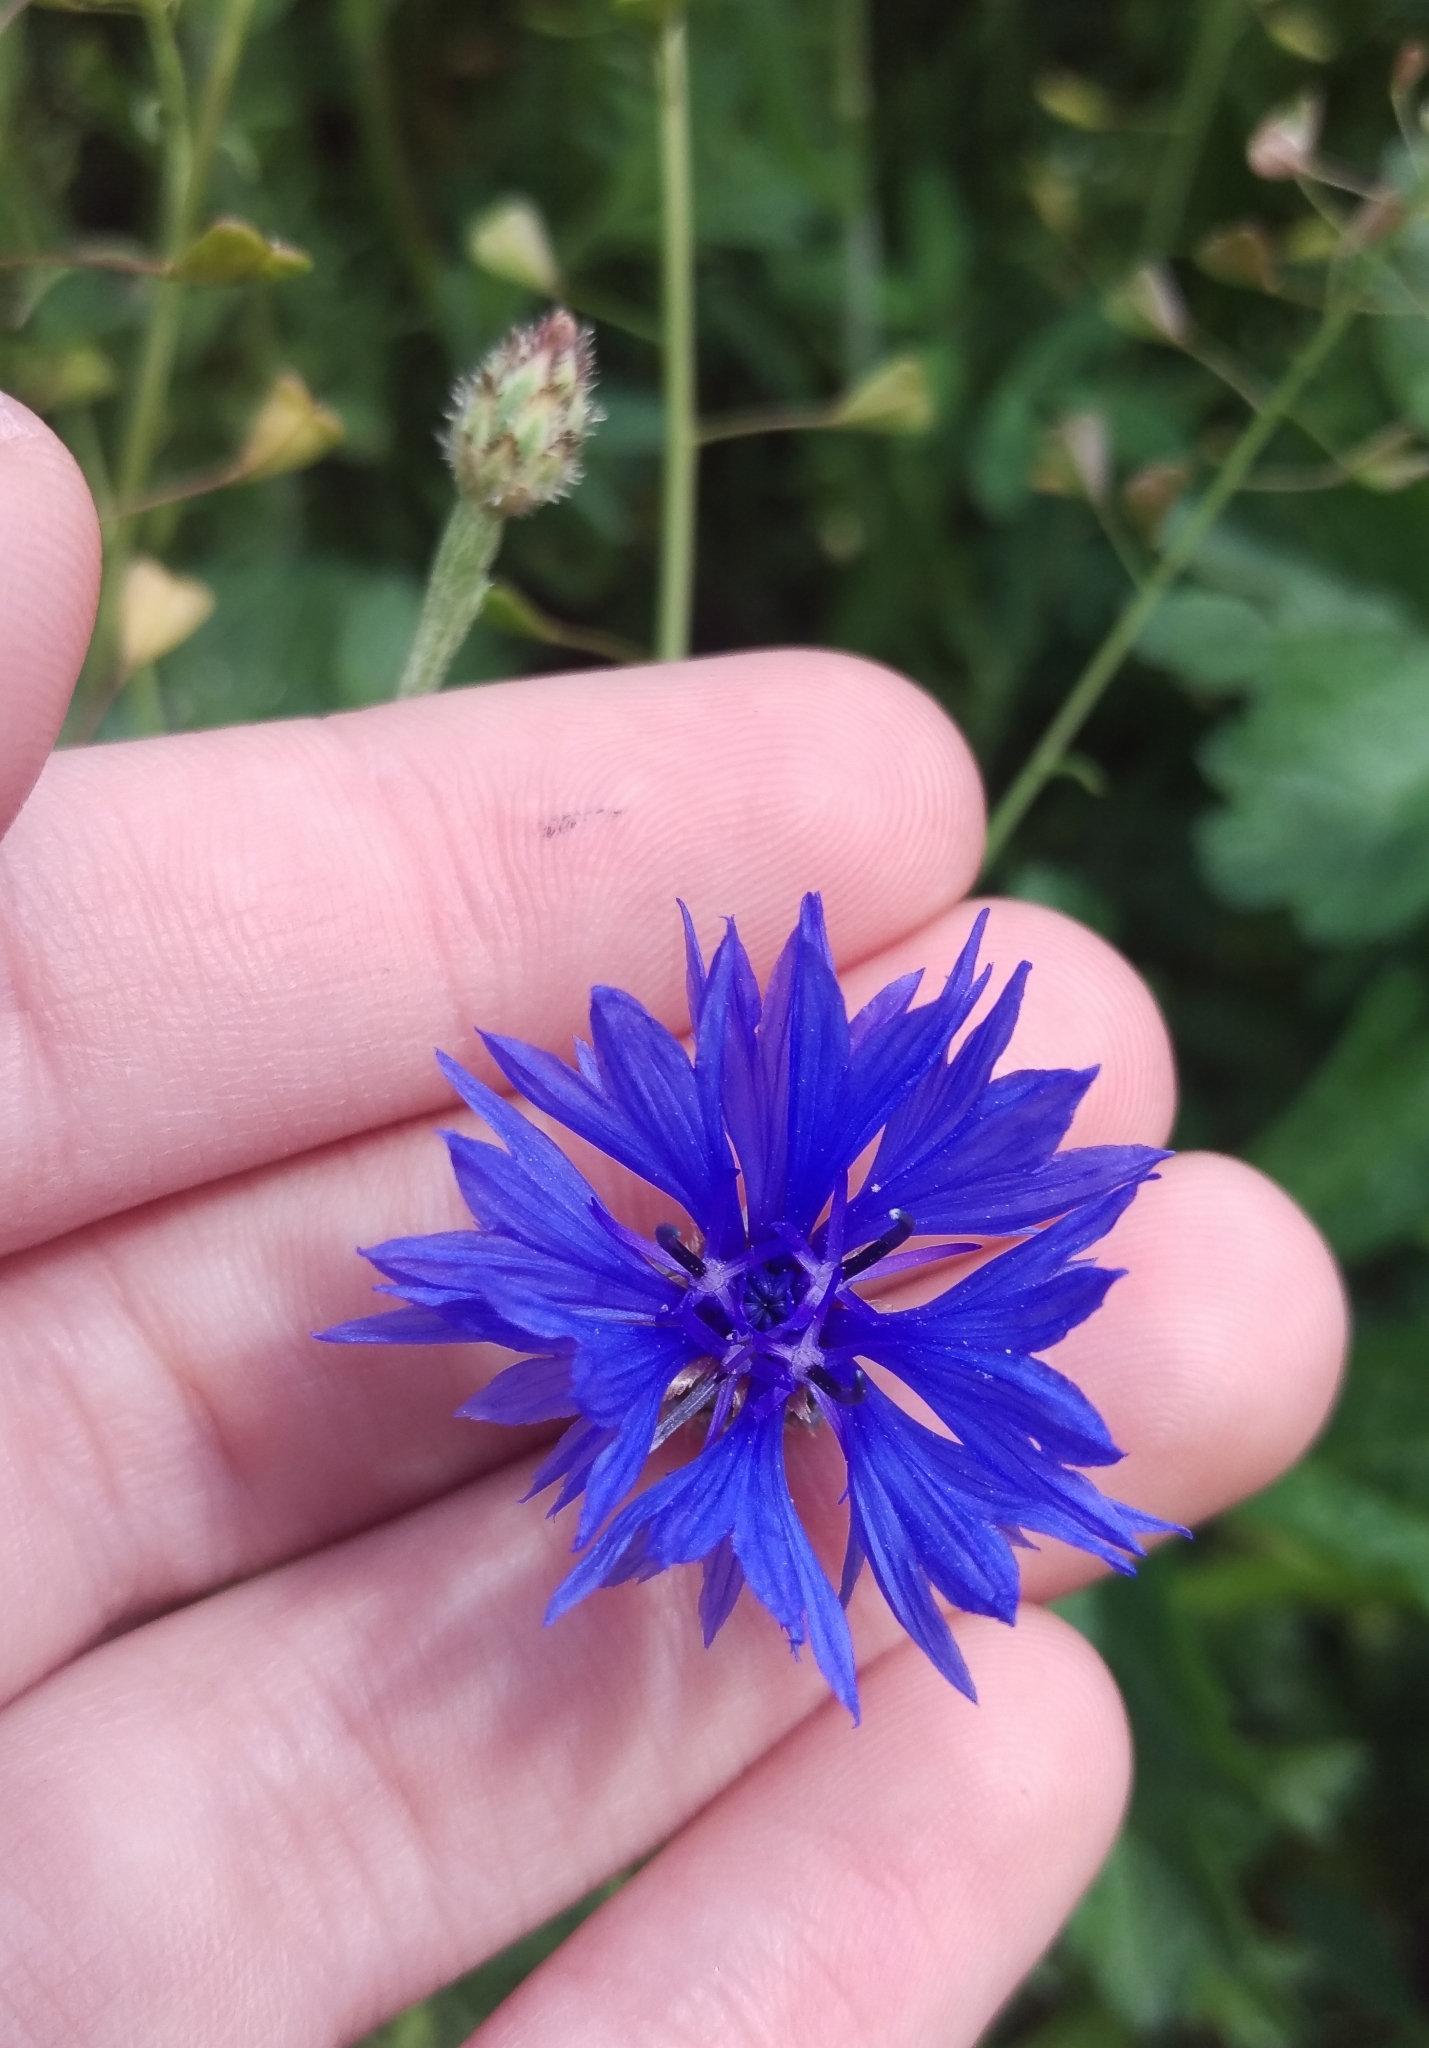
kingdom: Plantae
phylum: Tracheophyta
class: Magnoliopsida
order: Asterales
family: Asteraceae
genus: Centaurea
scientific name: Centaurea cyanus
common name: Cornflower
